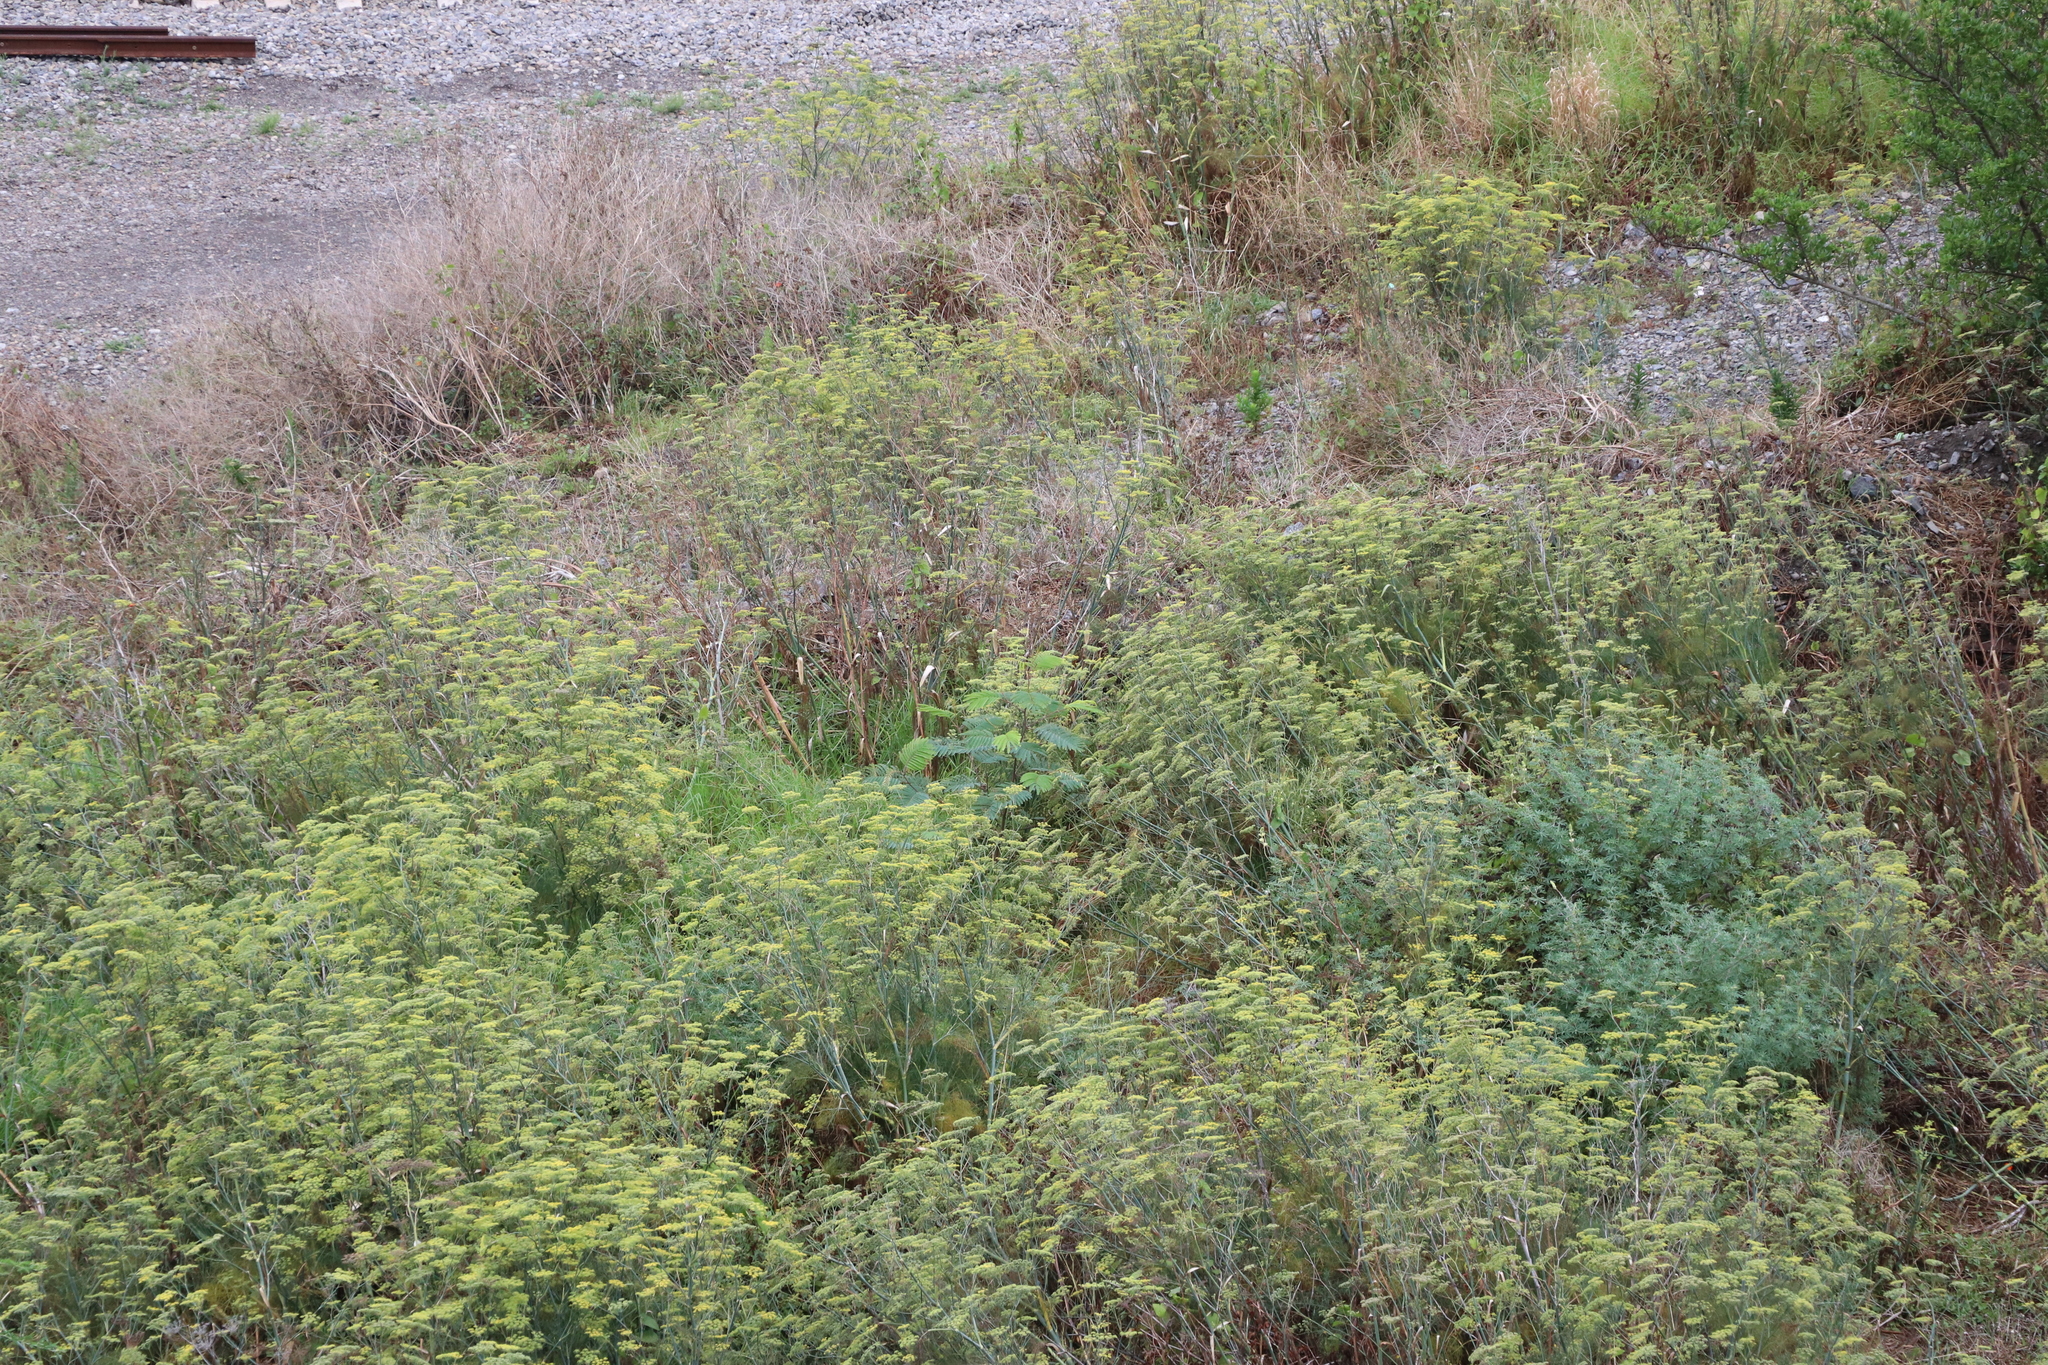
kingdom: Plantae
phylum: Tracheophyta
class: Magnoliopsida
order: Fabales
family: Fabaceae
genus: Paraserianthes
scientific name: Paraserianthes lophantha
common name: Plume albizia
